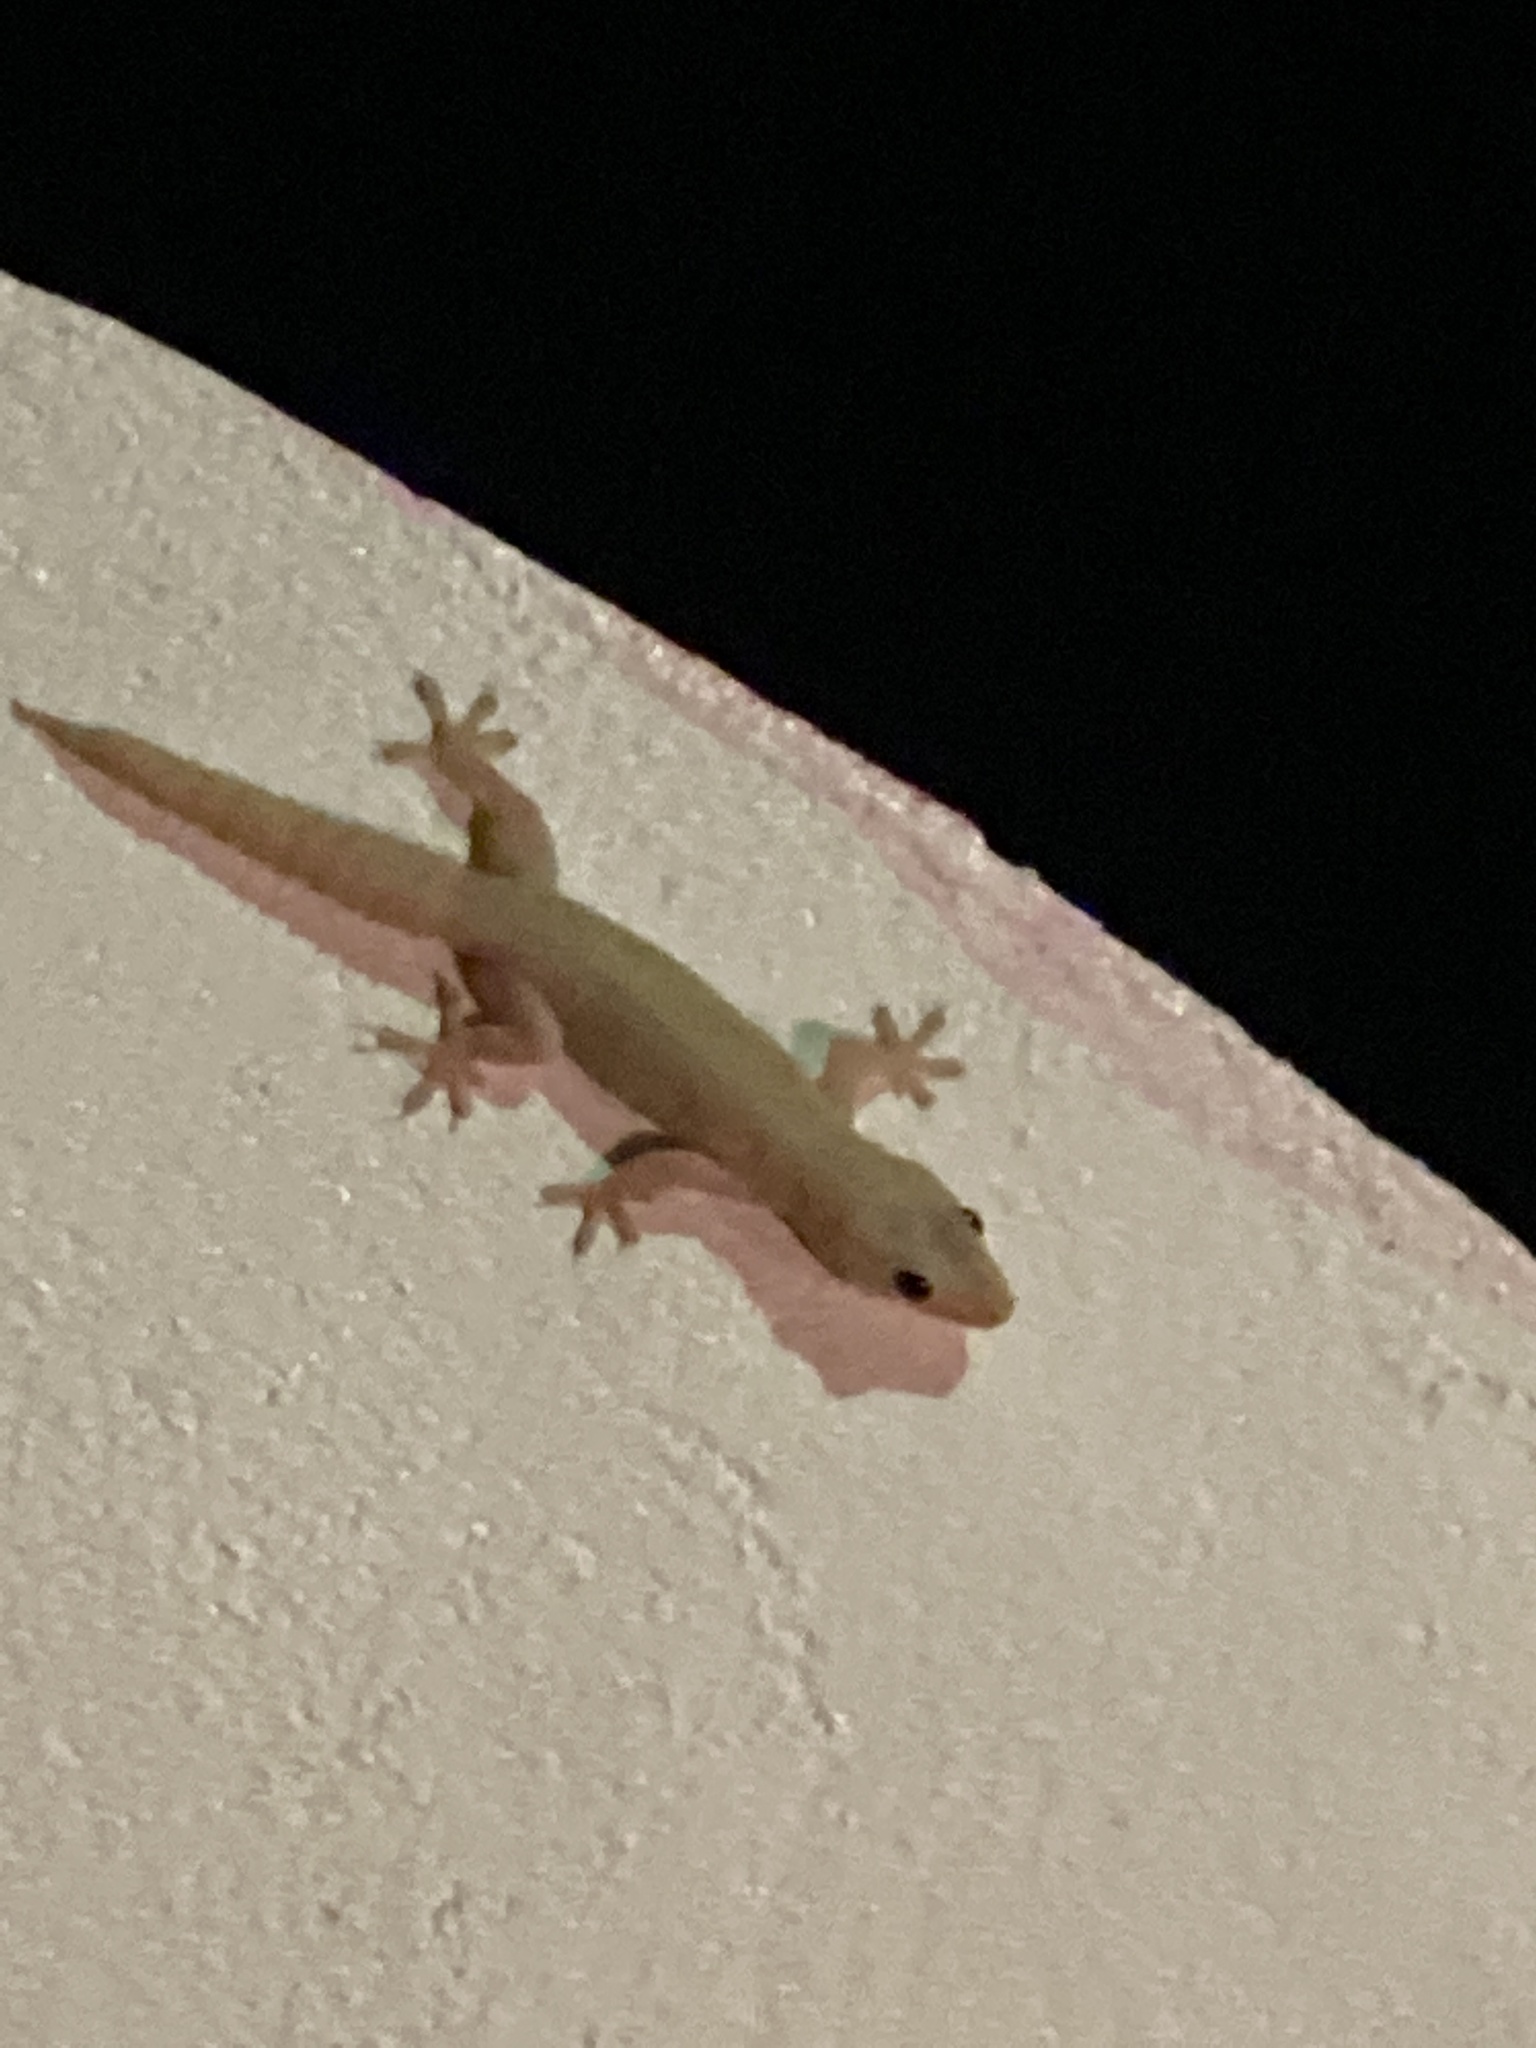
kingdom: Animalia
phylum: Chordata
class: Squamata
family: Gekkonidae
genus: Hemidactylus
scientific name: Hemidactylus mabouia
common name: House gecko
